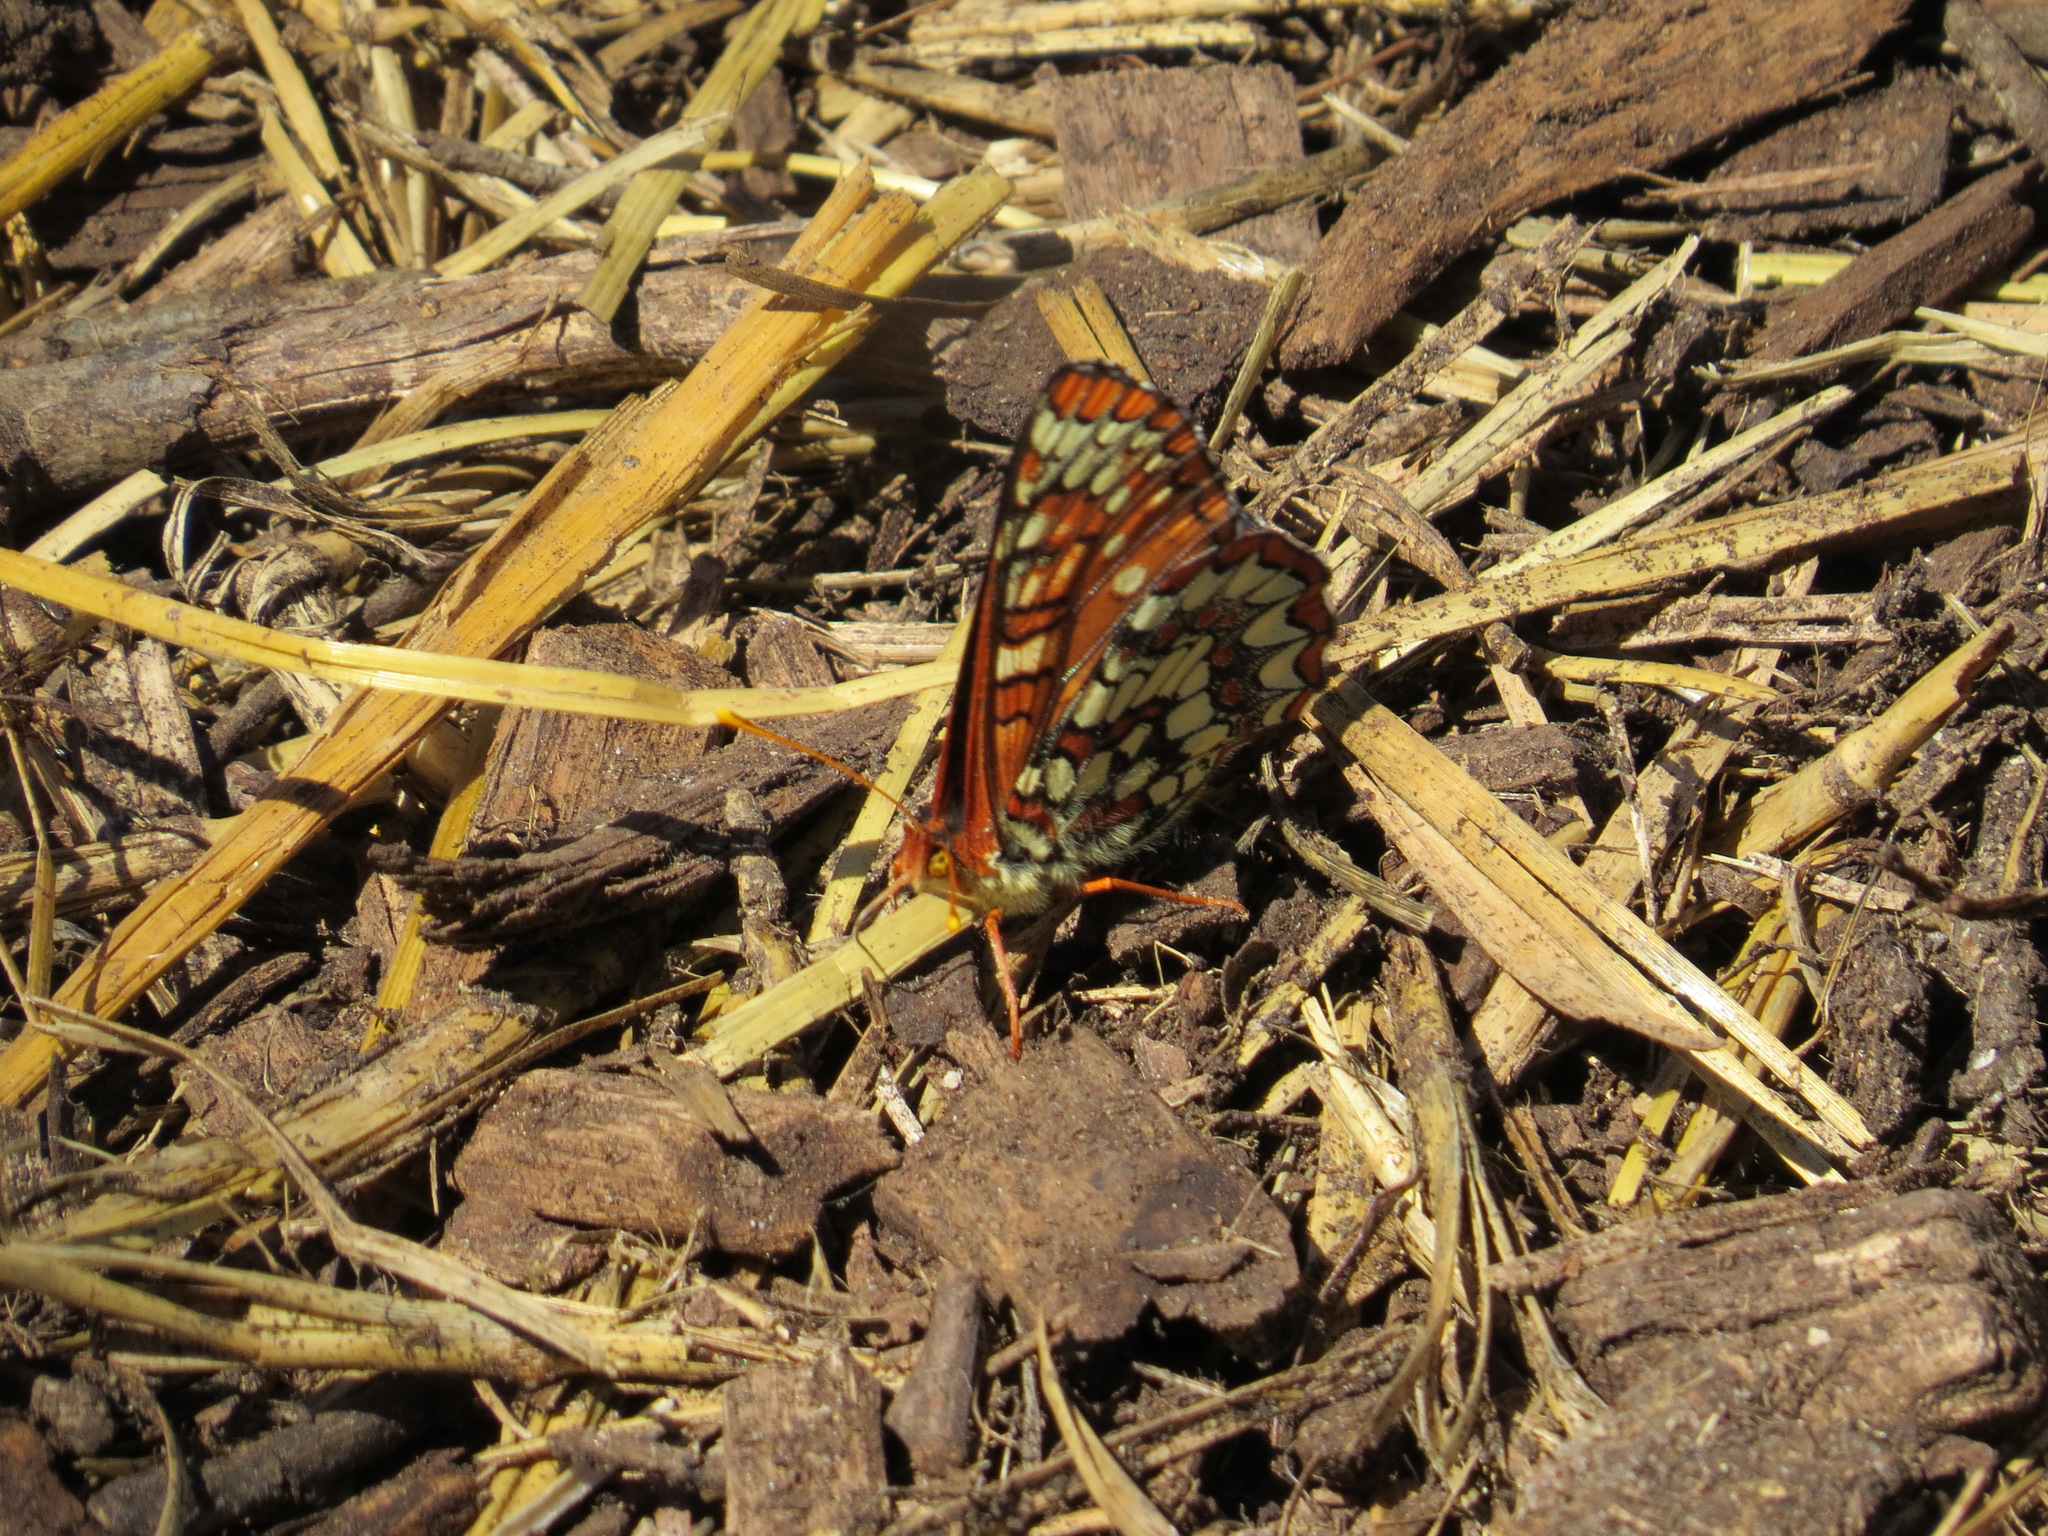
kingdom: Animalia
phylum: Arthropoda
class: Insecta
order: Lepidoptera
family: Nymphalidae
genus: Occidryas
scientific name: Occidryas chalcedona
